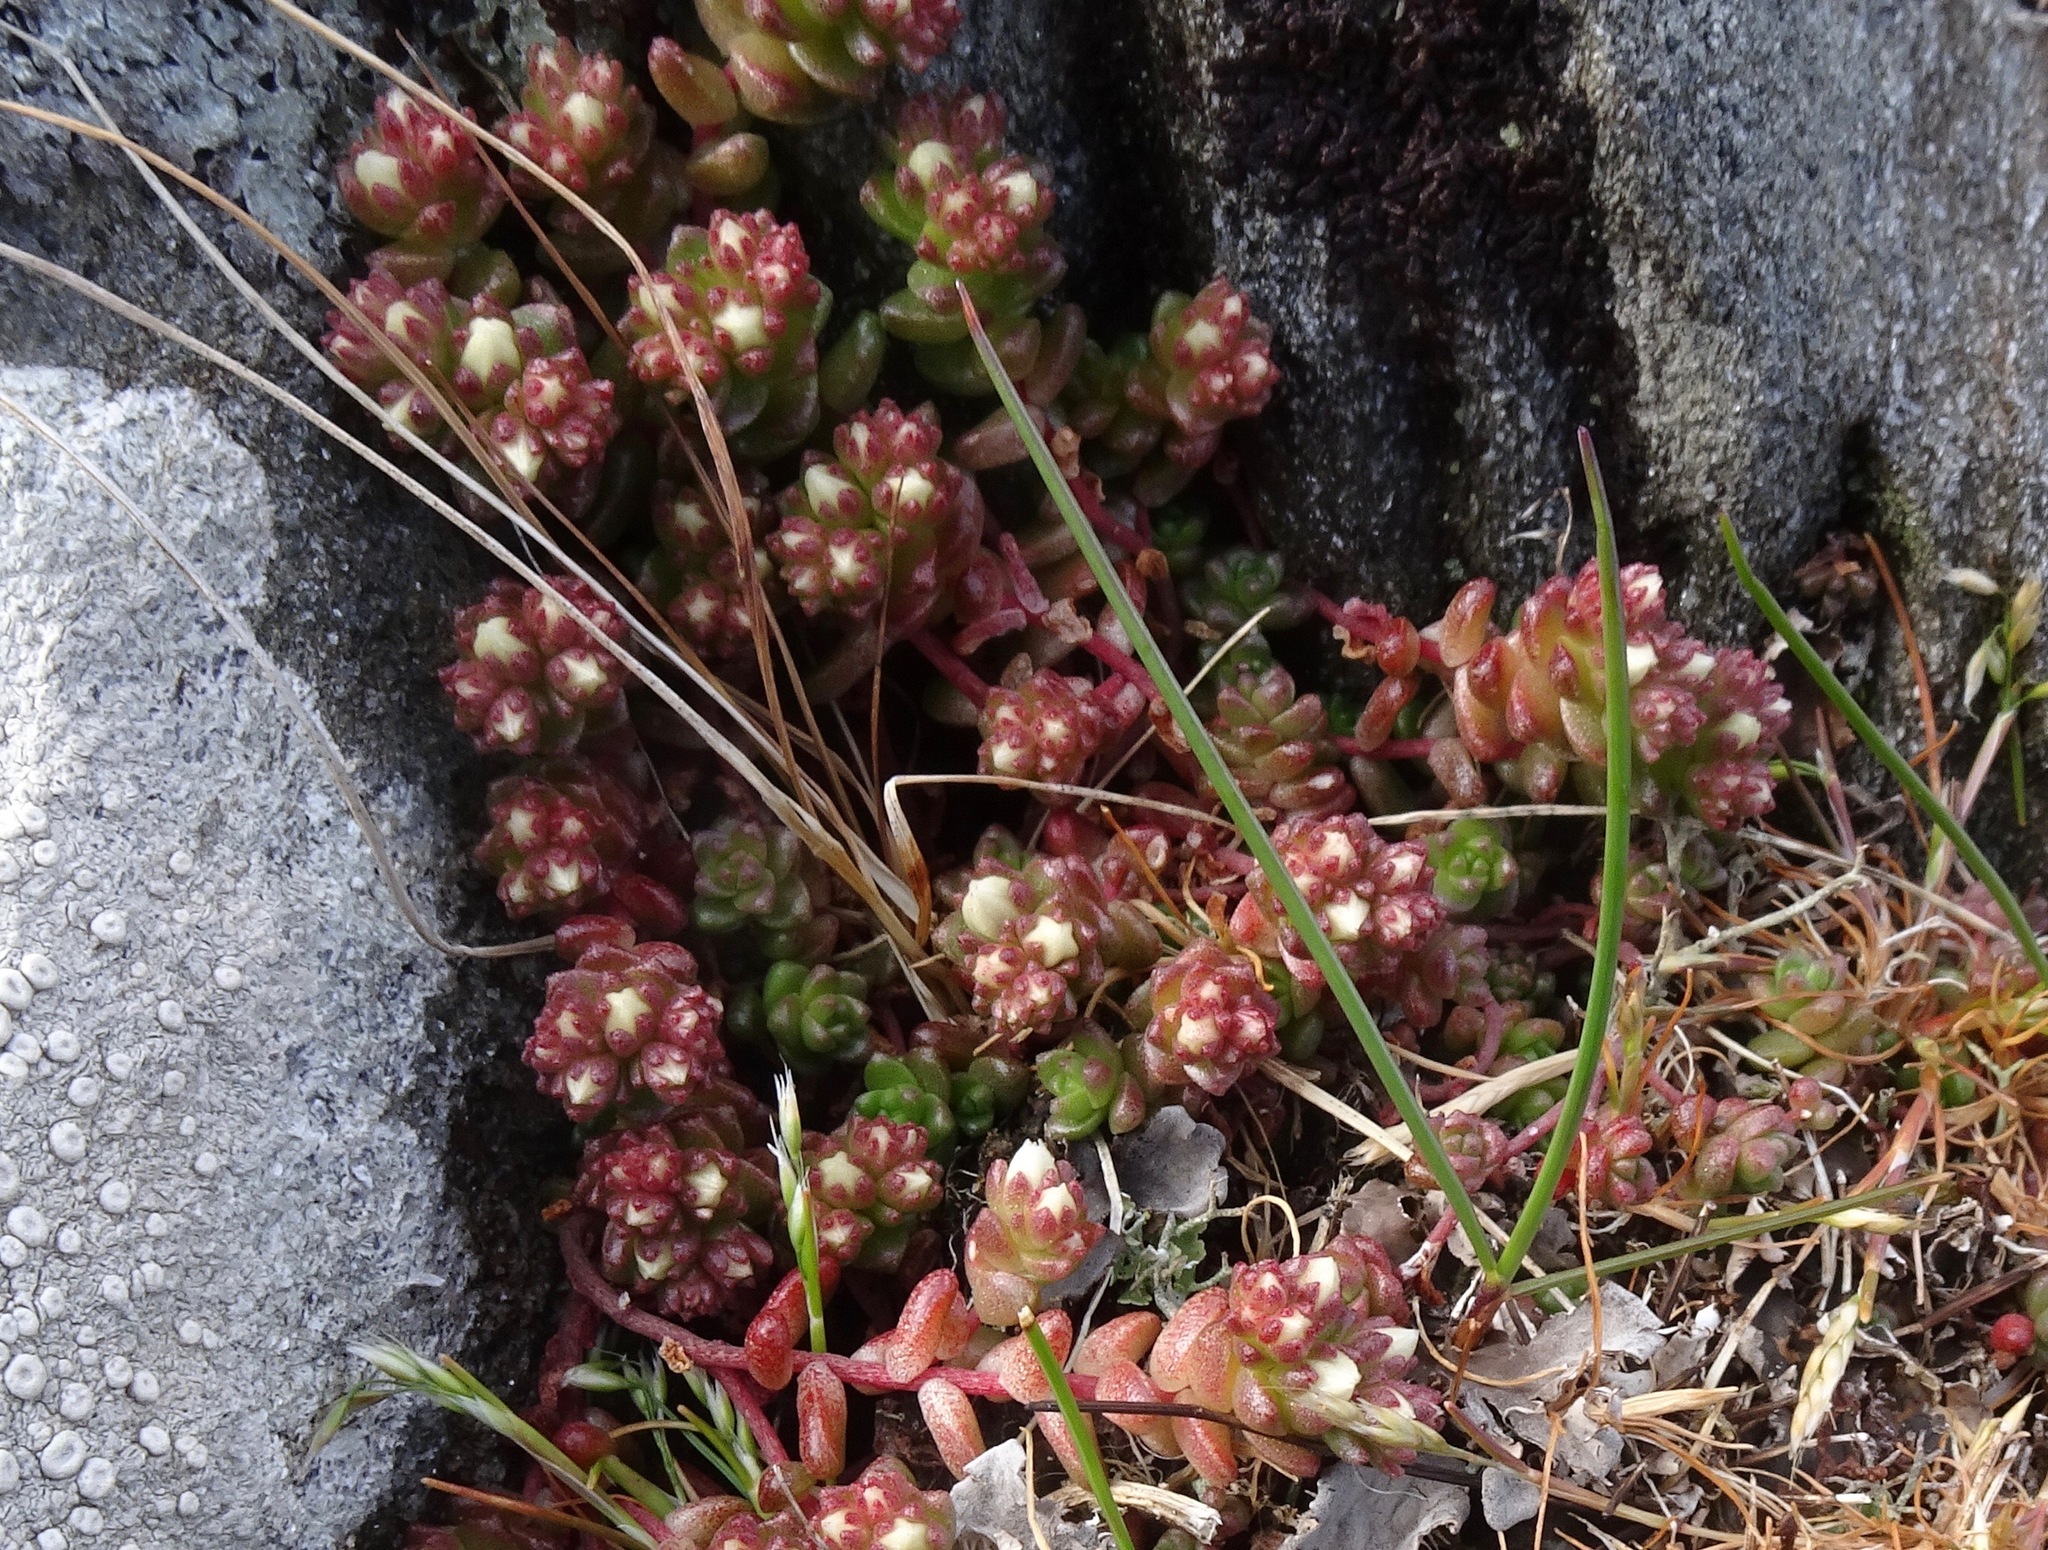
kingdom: Plantae
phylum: Tracheophyta
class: Magnoliopsida
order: Saxifragales
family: Crassulaceae
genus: Sedum
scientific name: Sedum anglicum
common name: English stonecrop
